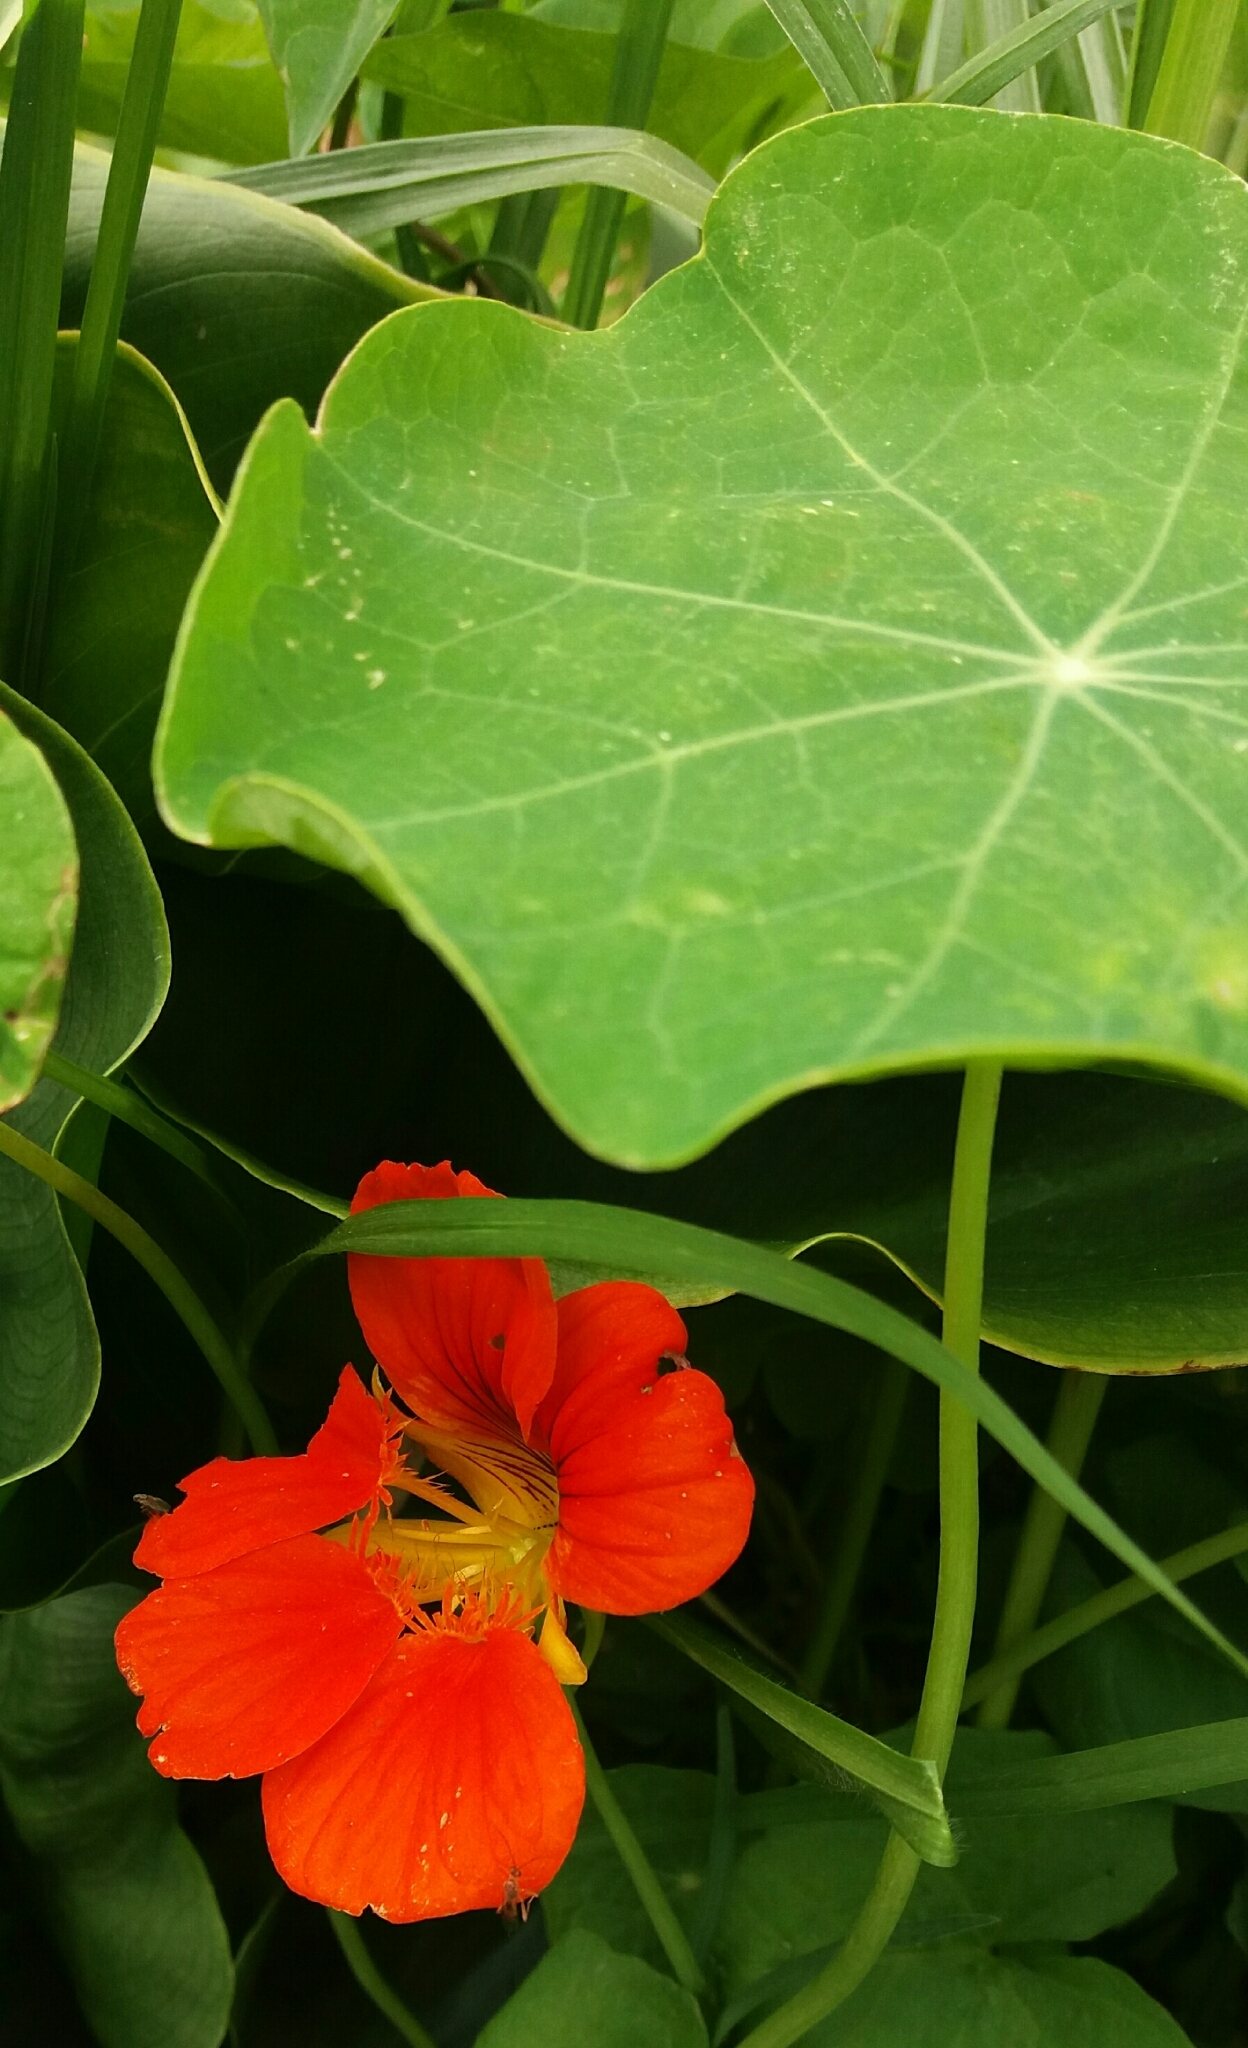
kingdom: Plantae
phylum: Tracheophyta
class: Magnoliopsida
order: Brassicales
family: Tropaeolaceae
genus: Tropaeolum
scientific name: Tropaeolum majus
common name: Nasturtium
